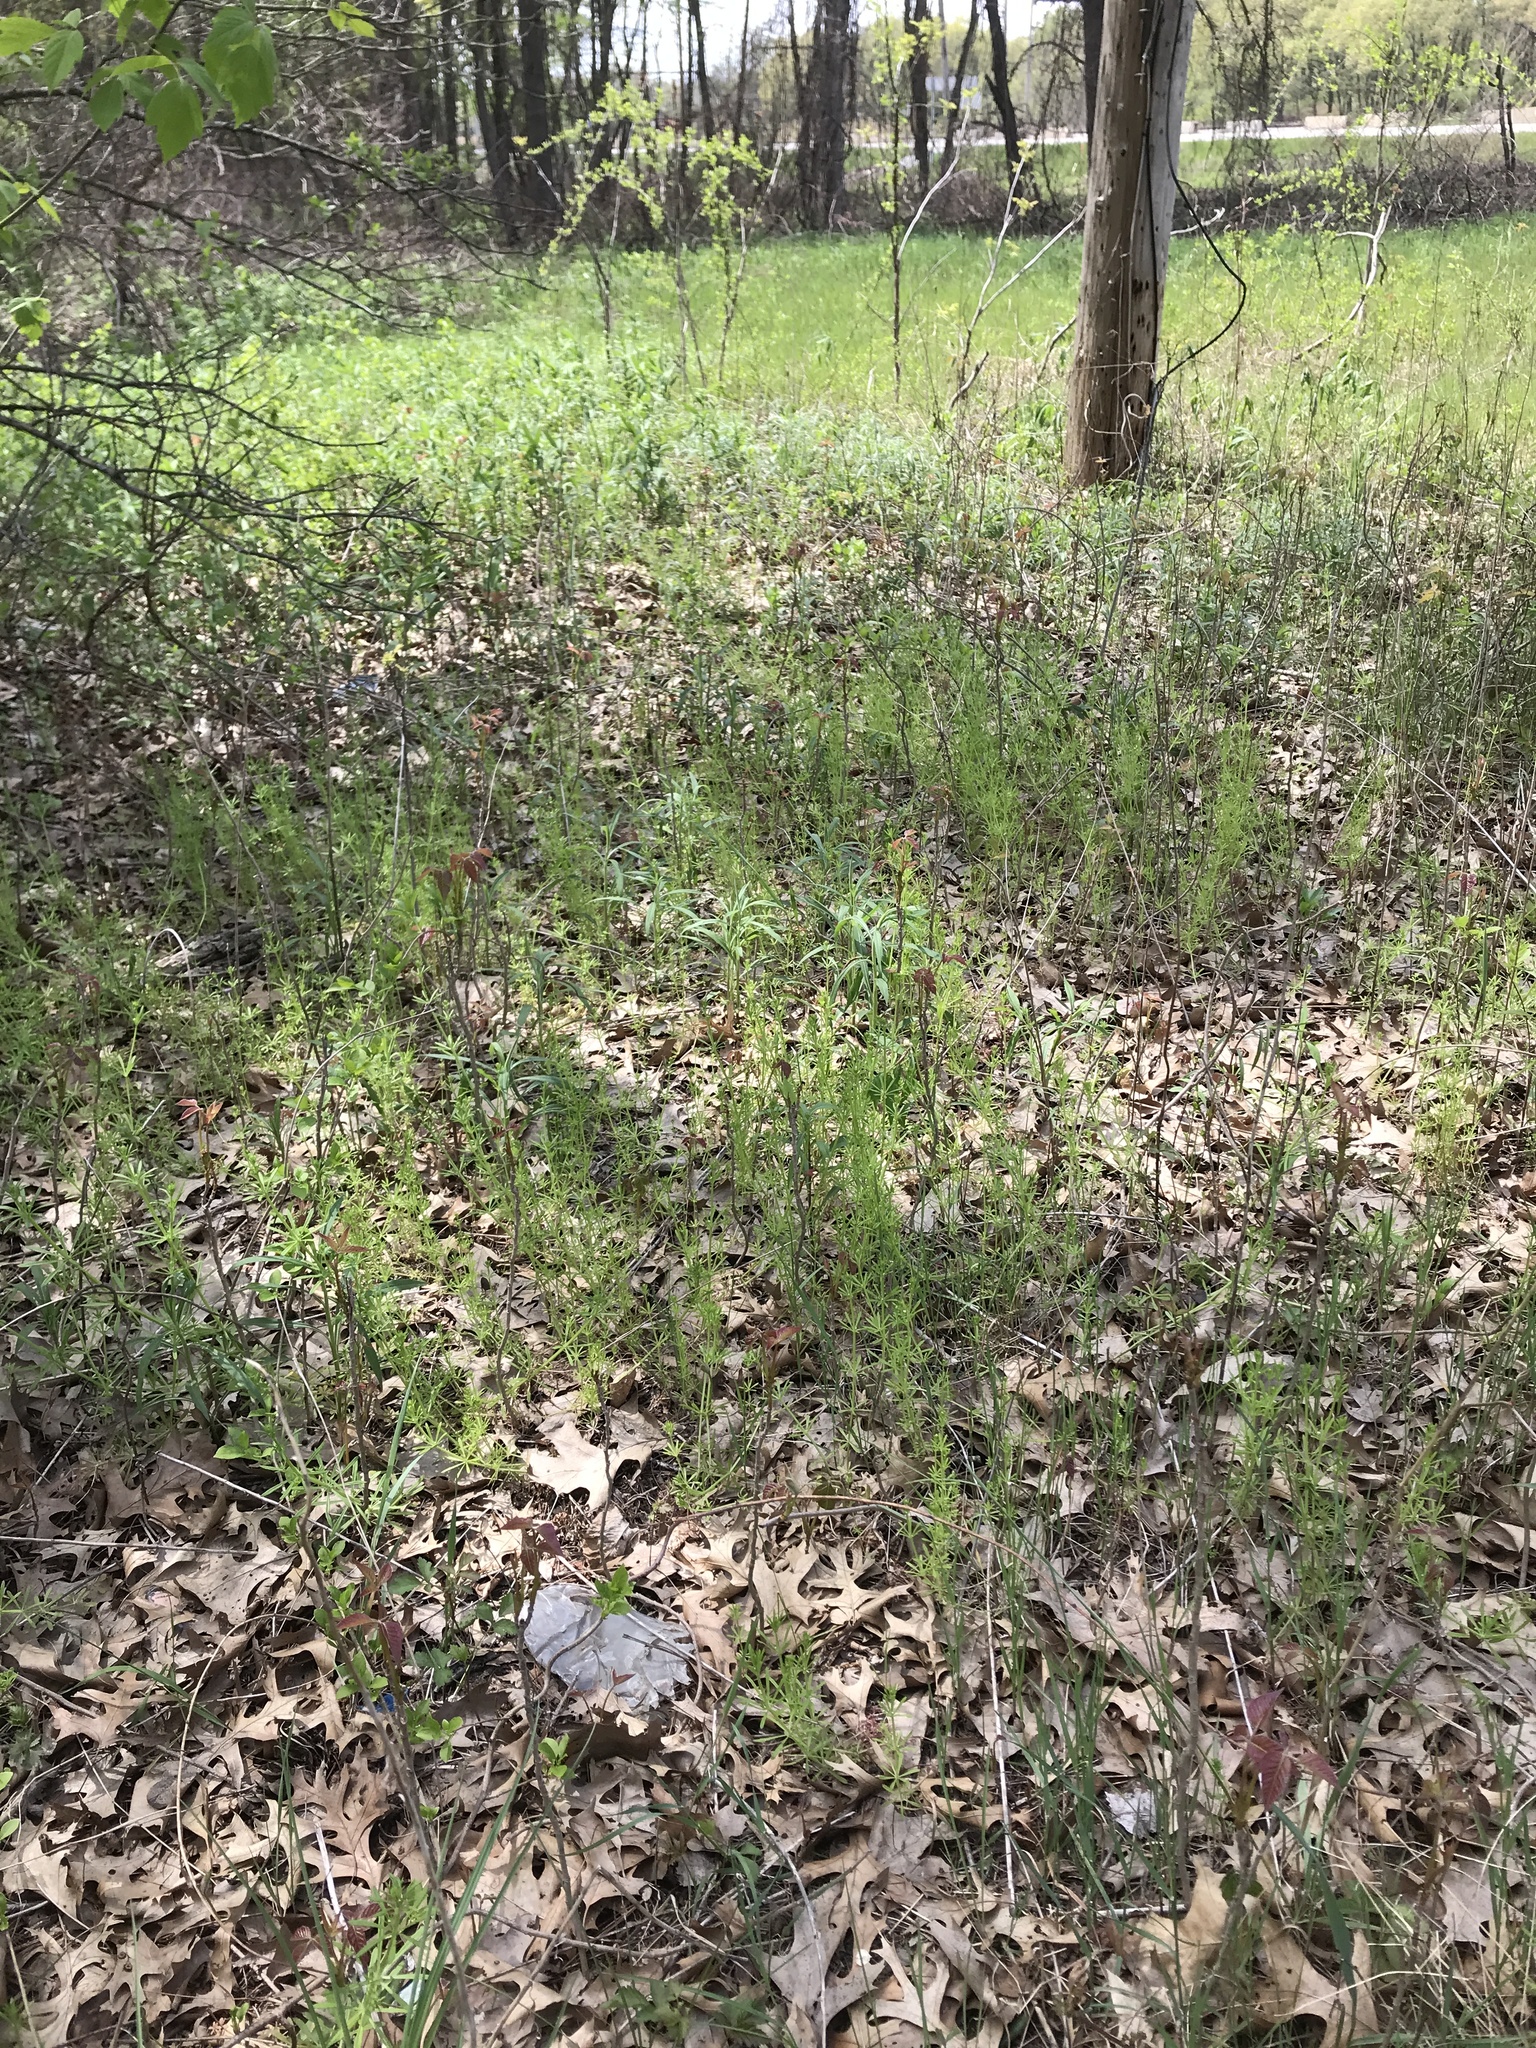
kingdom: Plantae
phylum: Tracheophyta
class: Magnoliopsida
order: Gentianales
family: Rubiaceae
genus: Galium
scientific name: Galium aparine
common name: Cleavers
